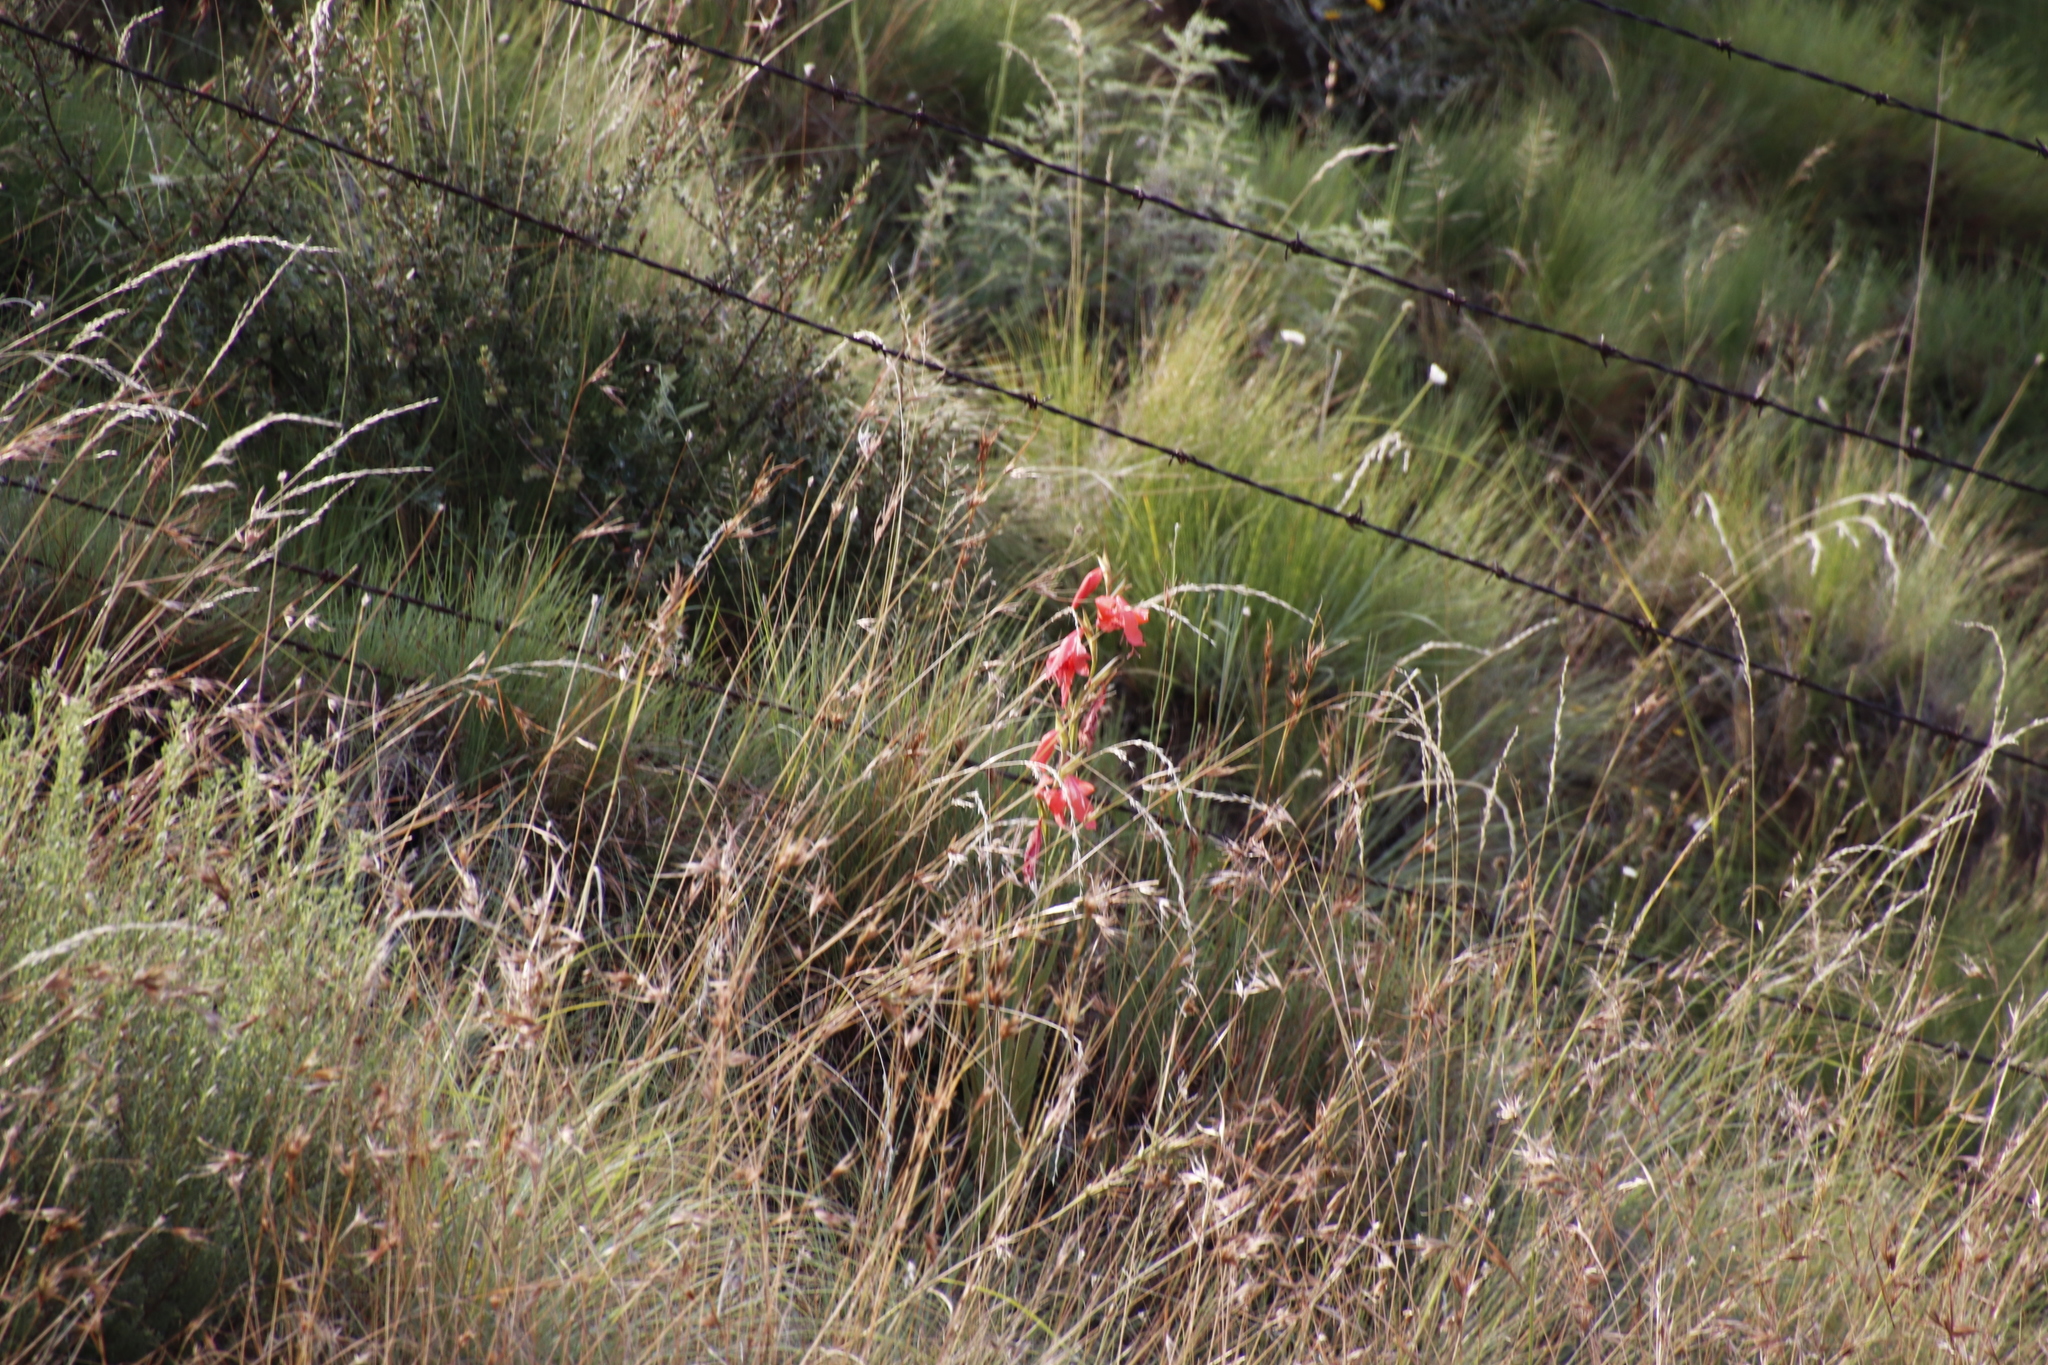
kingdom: Plantae
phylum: Tracheophyta
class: Liliopsida
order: Asparagales
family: Iridaceae
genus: Gladiolus
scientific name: Gladiolus saundersii
